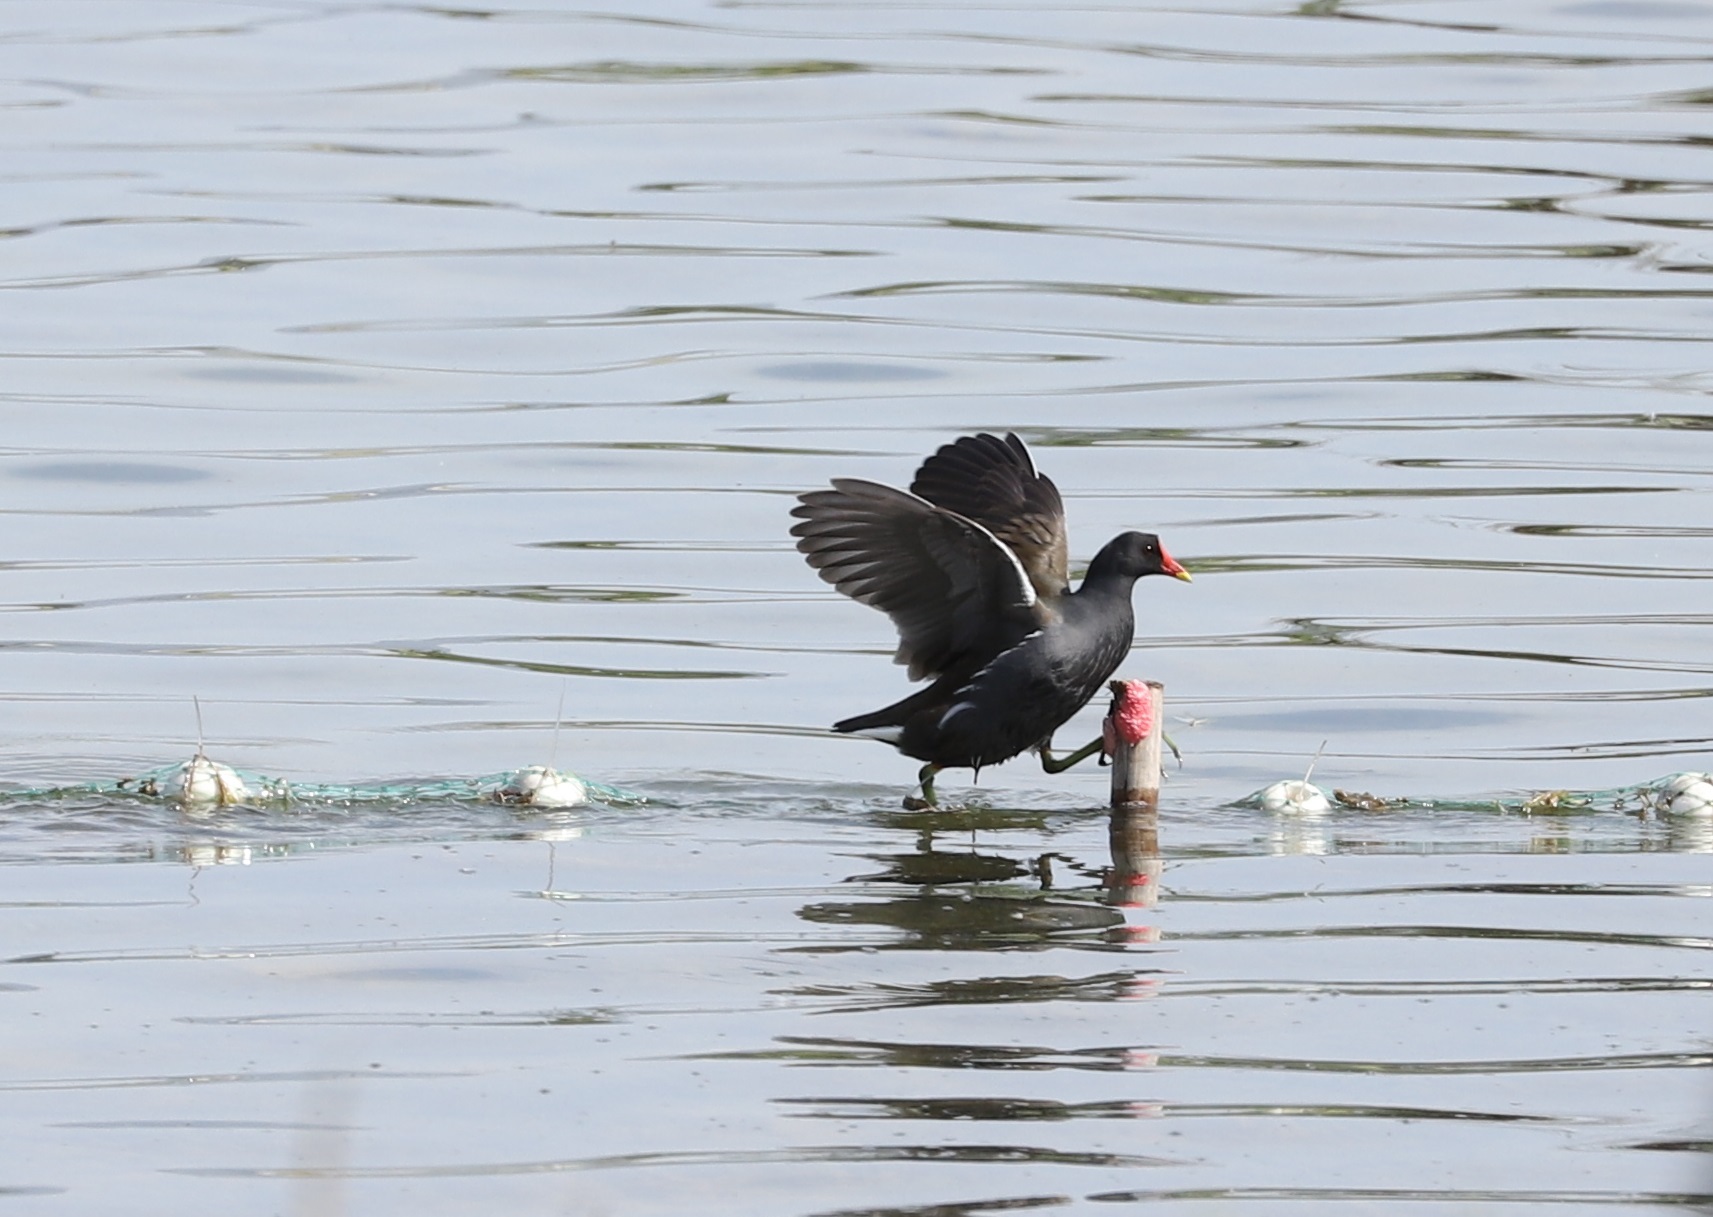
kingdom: Animalia
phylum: Chordata
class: Aves
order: Gruiformes
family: Rallidae
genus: Gallinula
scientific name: Gallinula chloropus
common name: Common moorhen
